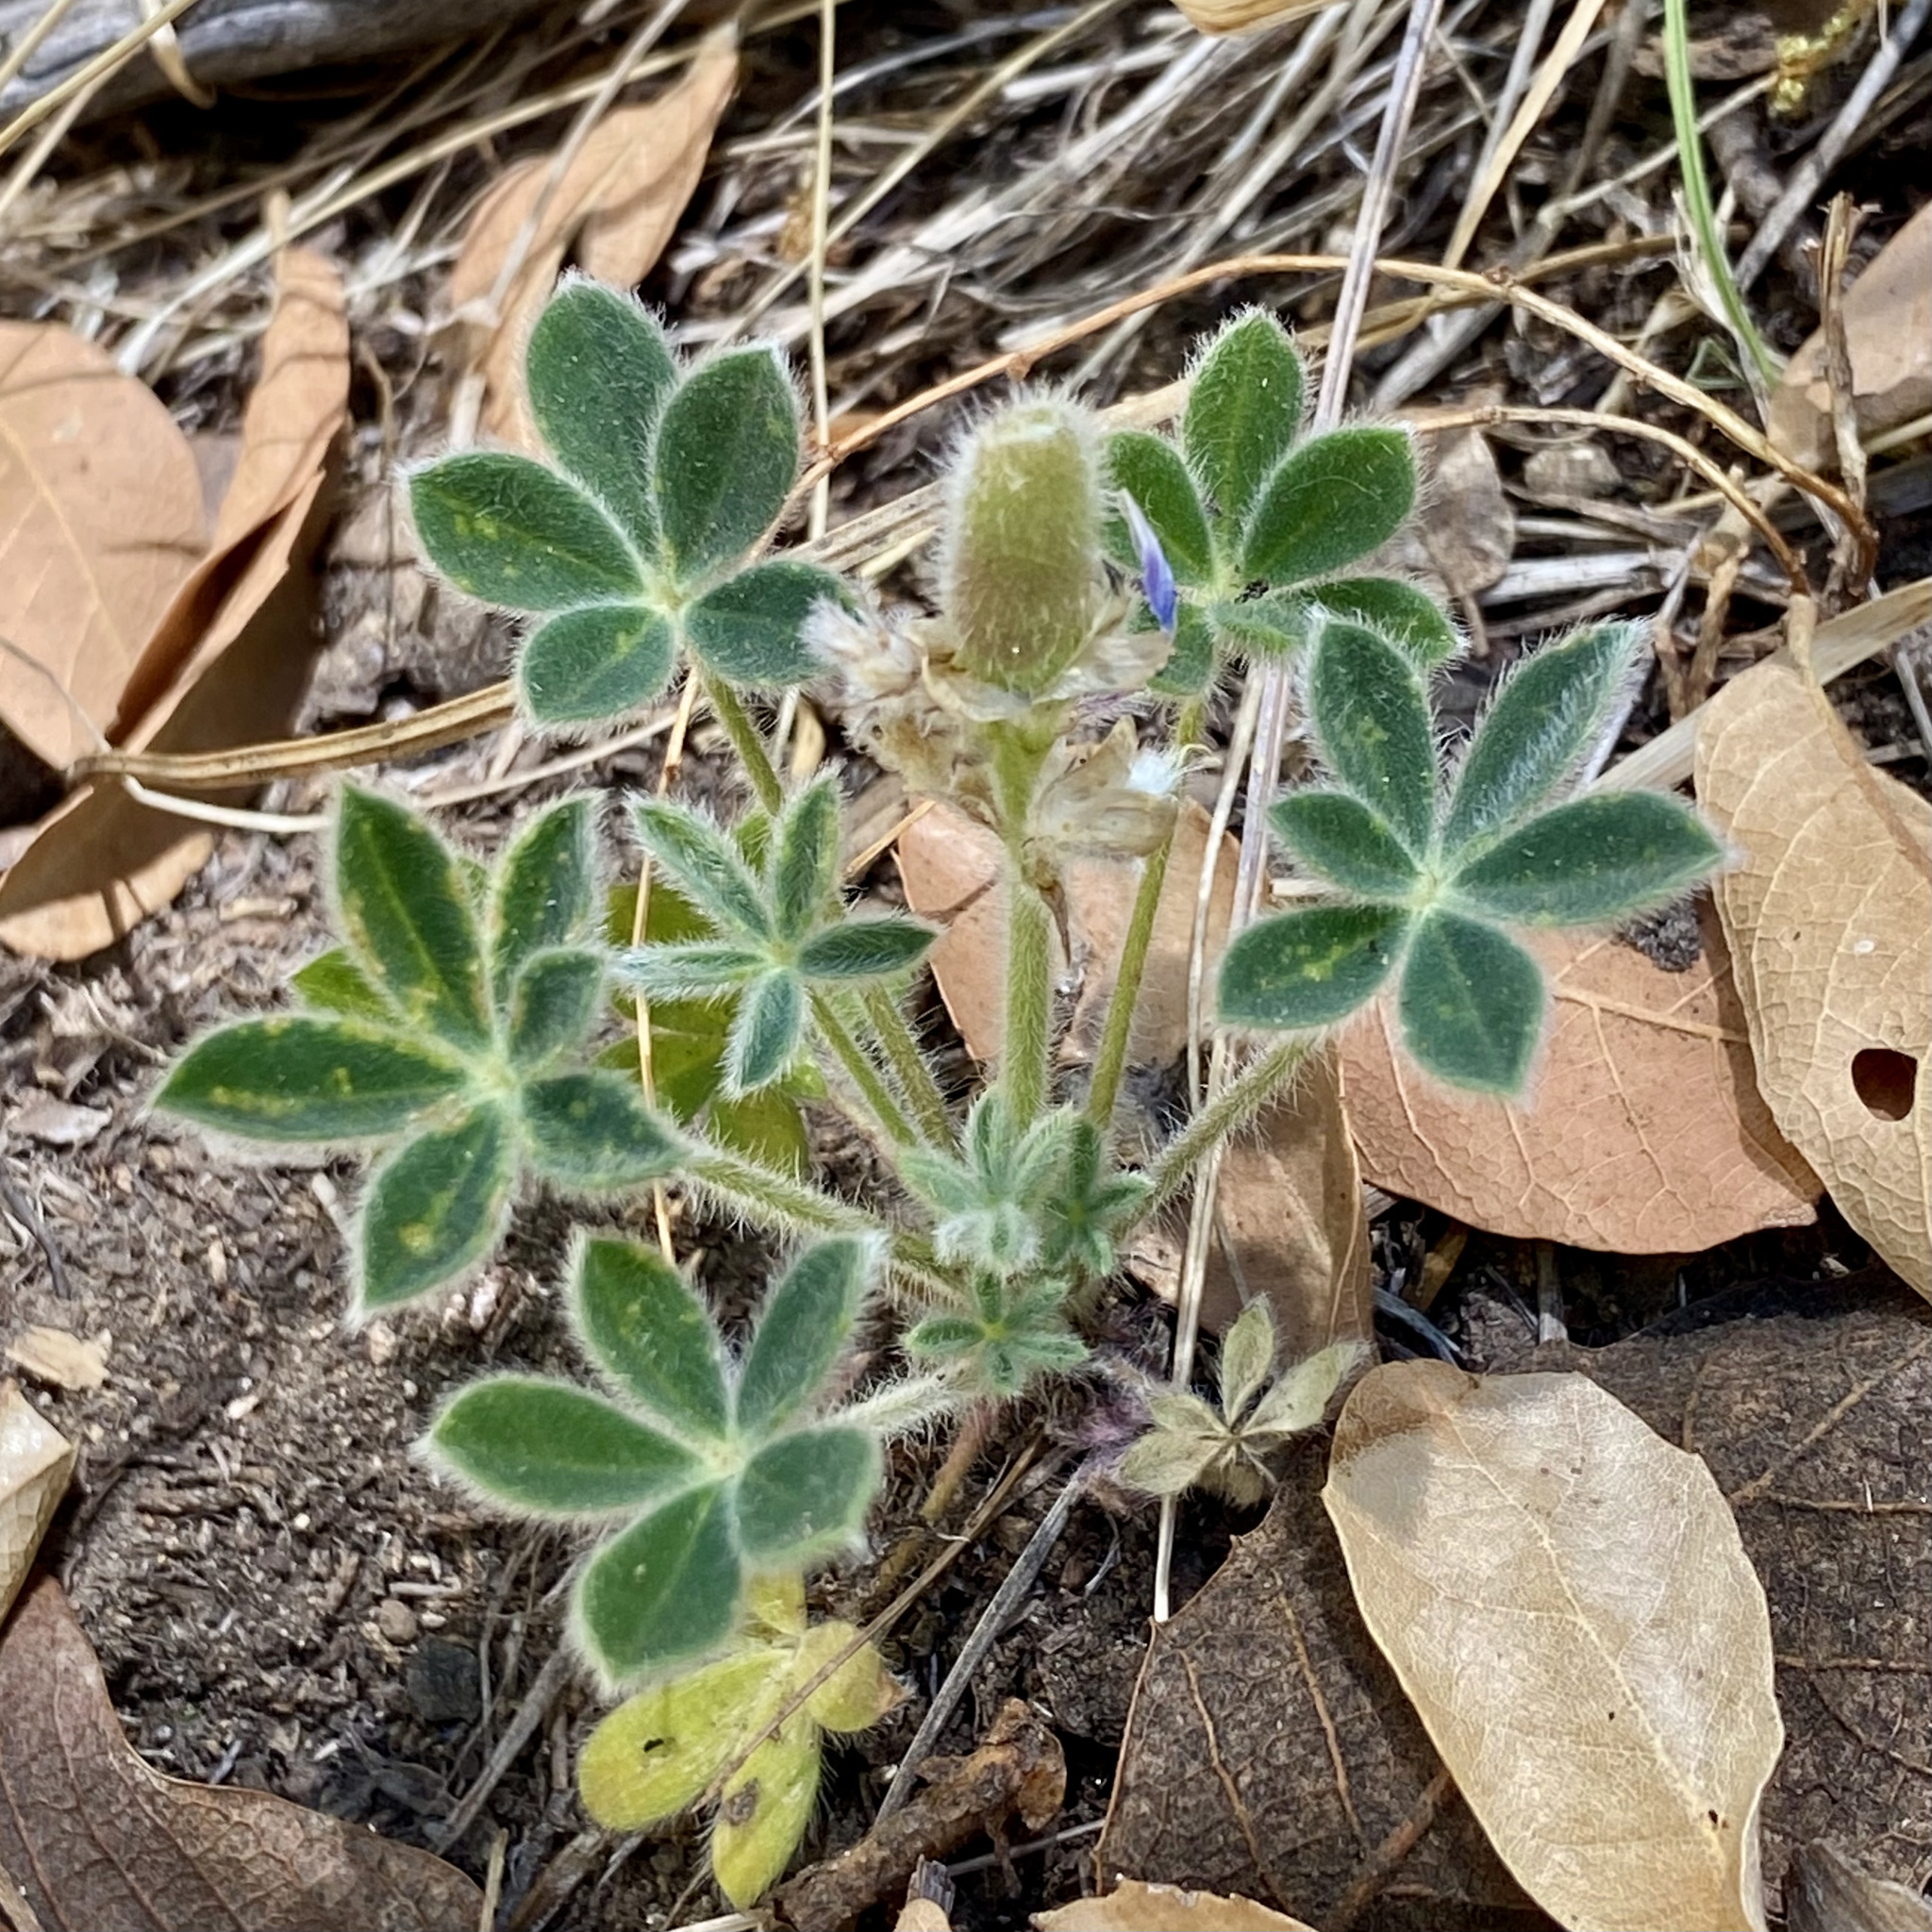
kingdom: Plantae
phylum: Tracheophyta
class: Magnoliopsida
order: Fabales
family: Fabaceae
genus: Lupinus
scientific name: Lupinus huachucanus
